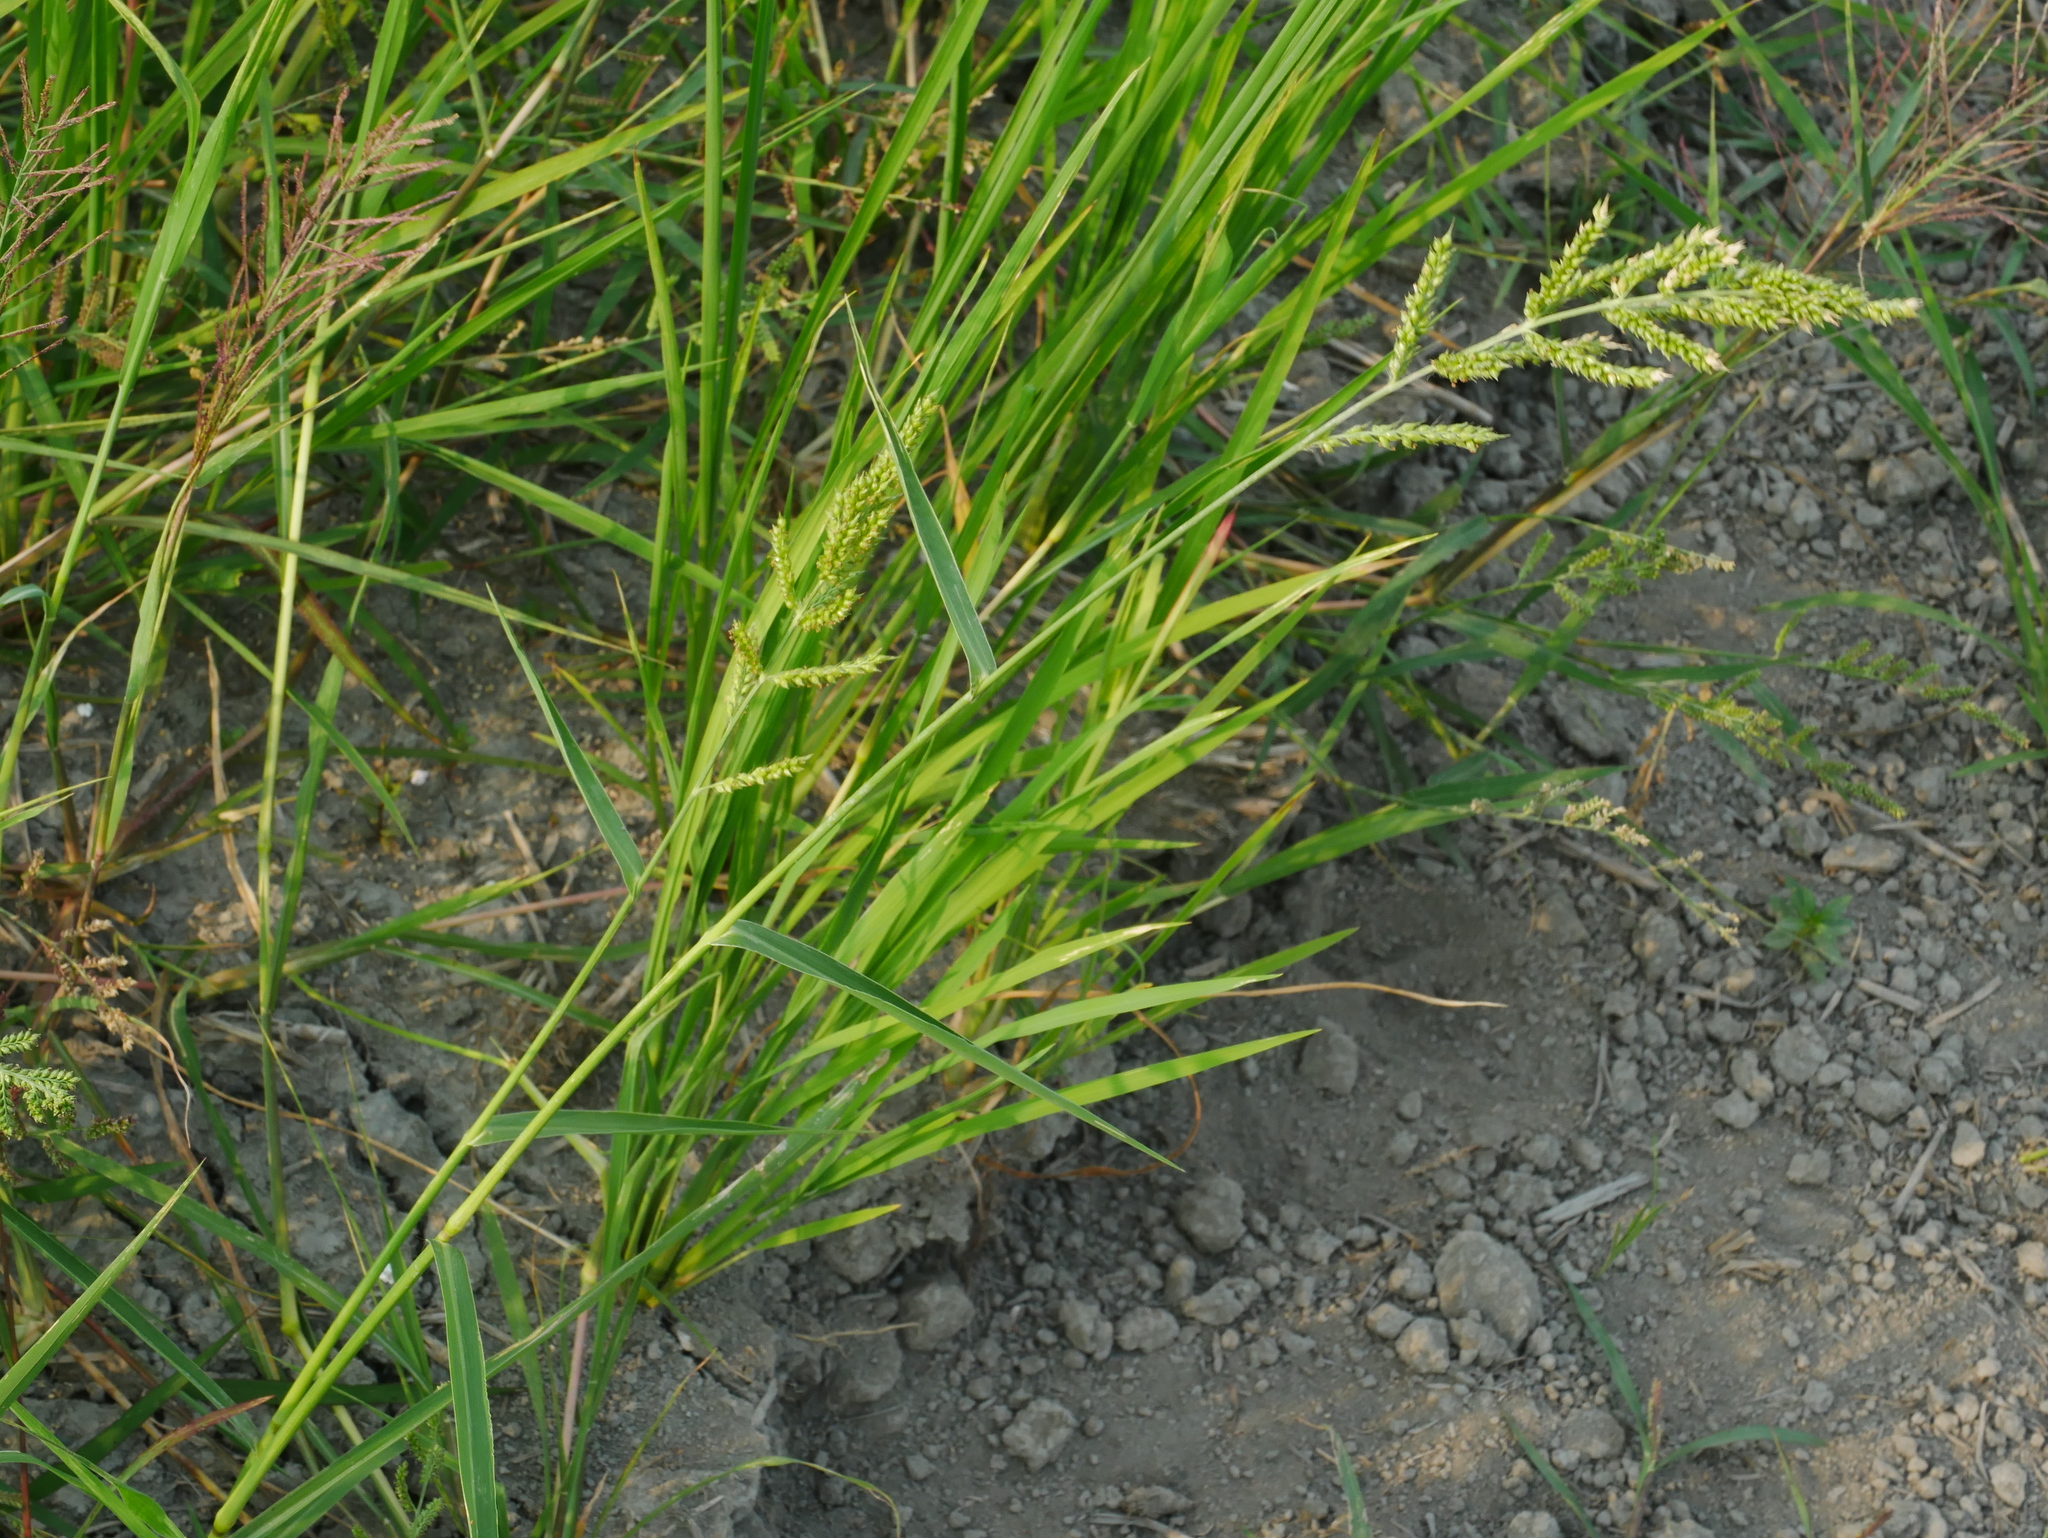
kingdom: Plantae
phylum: Tracheophyta
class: Liliopsida
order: Poales
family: Poaceae
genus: Echinochloa
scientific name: Echinochloa crus-galli
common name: Cockspur
